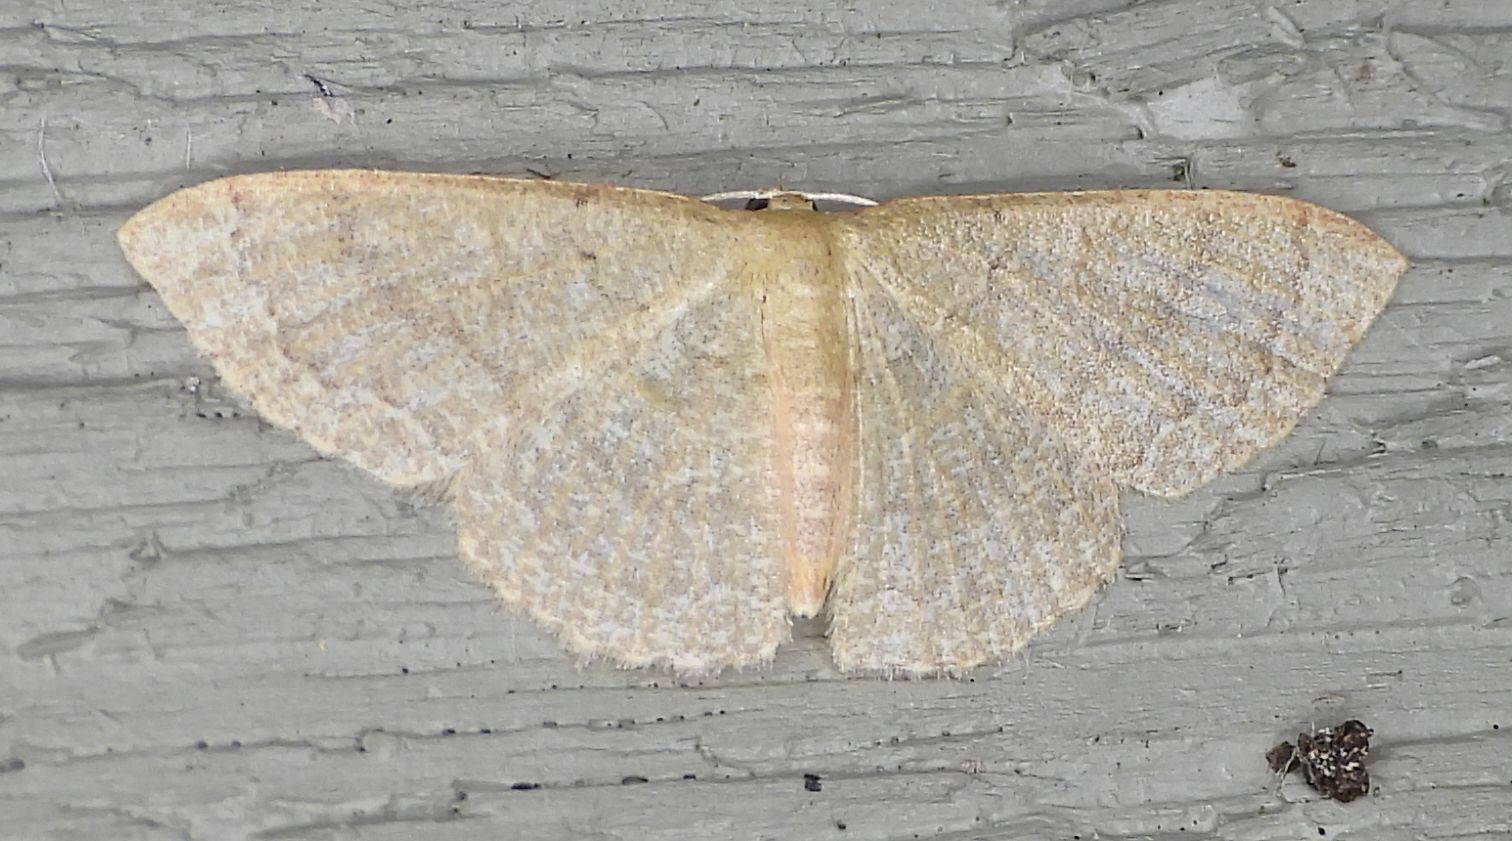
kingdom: Animalia
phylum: Arthropoda
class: Insecta
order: Lepidoptera
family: Geometridae
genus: Pleuroprucha
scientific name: Pleuroprucha insulsaria
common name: Common tan wave
